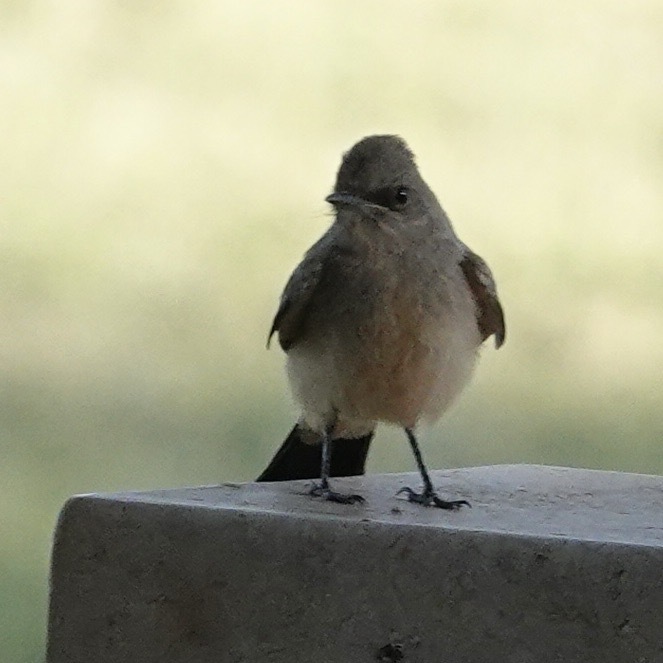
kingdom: Animalia
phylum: Chordata
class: Aves
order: Passeriformes
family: Tyrannidae
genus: Sayornis
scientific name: Sayornis saya
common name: Say's phoebe
